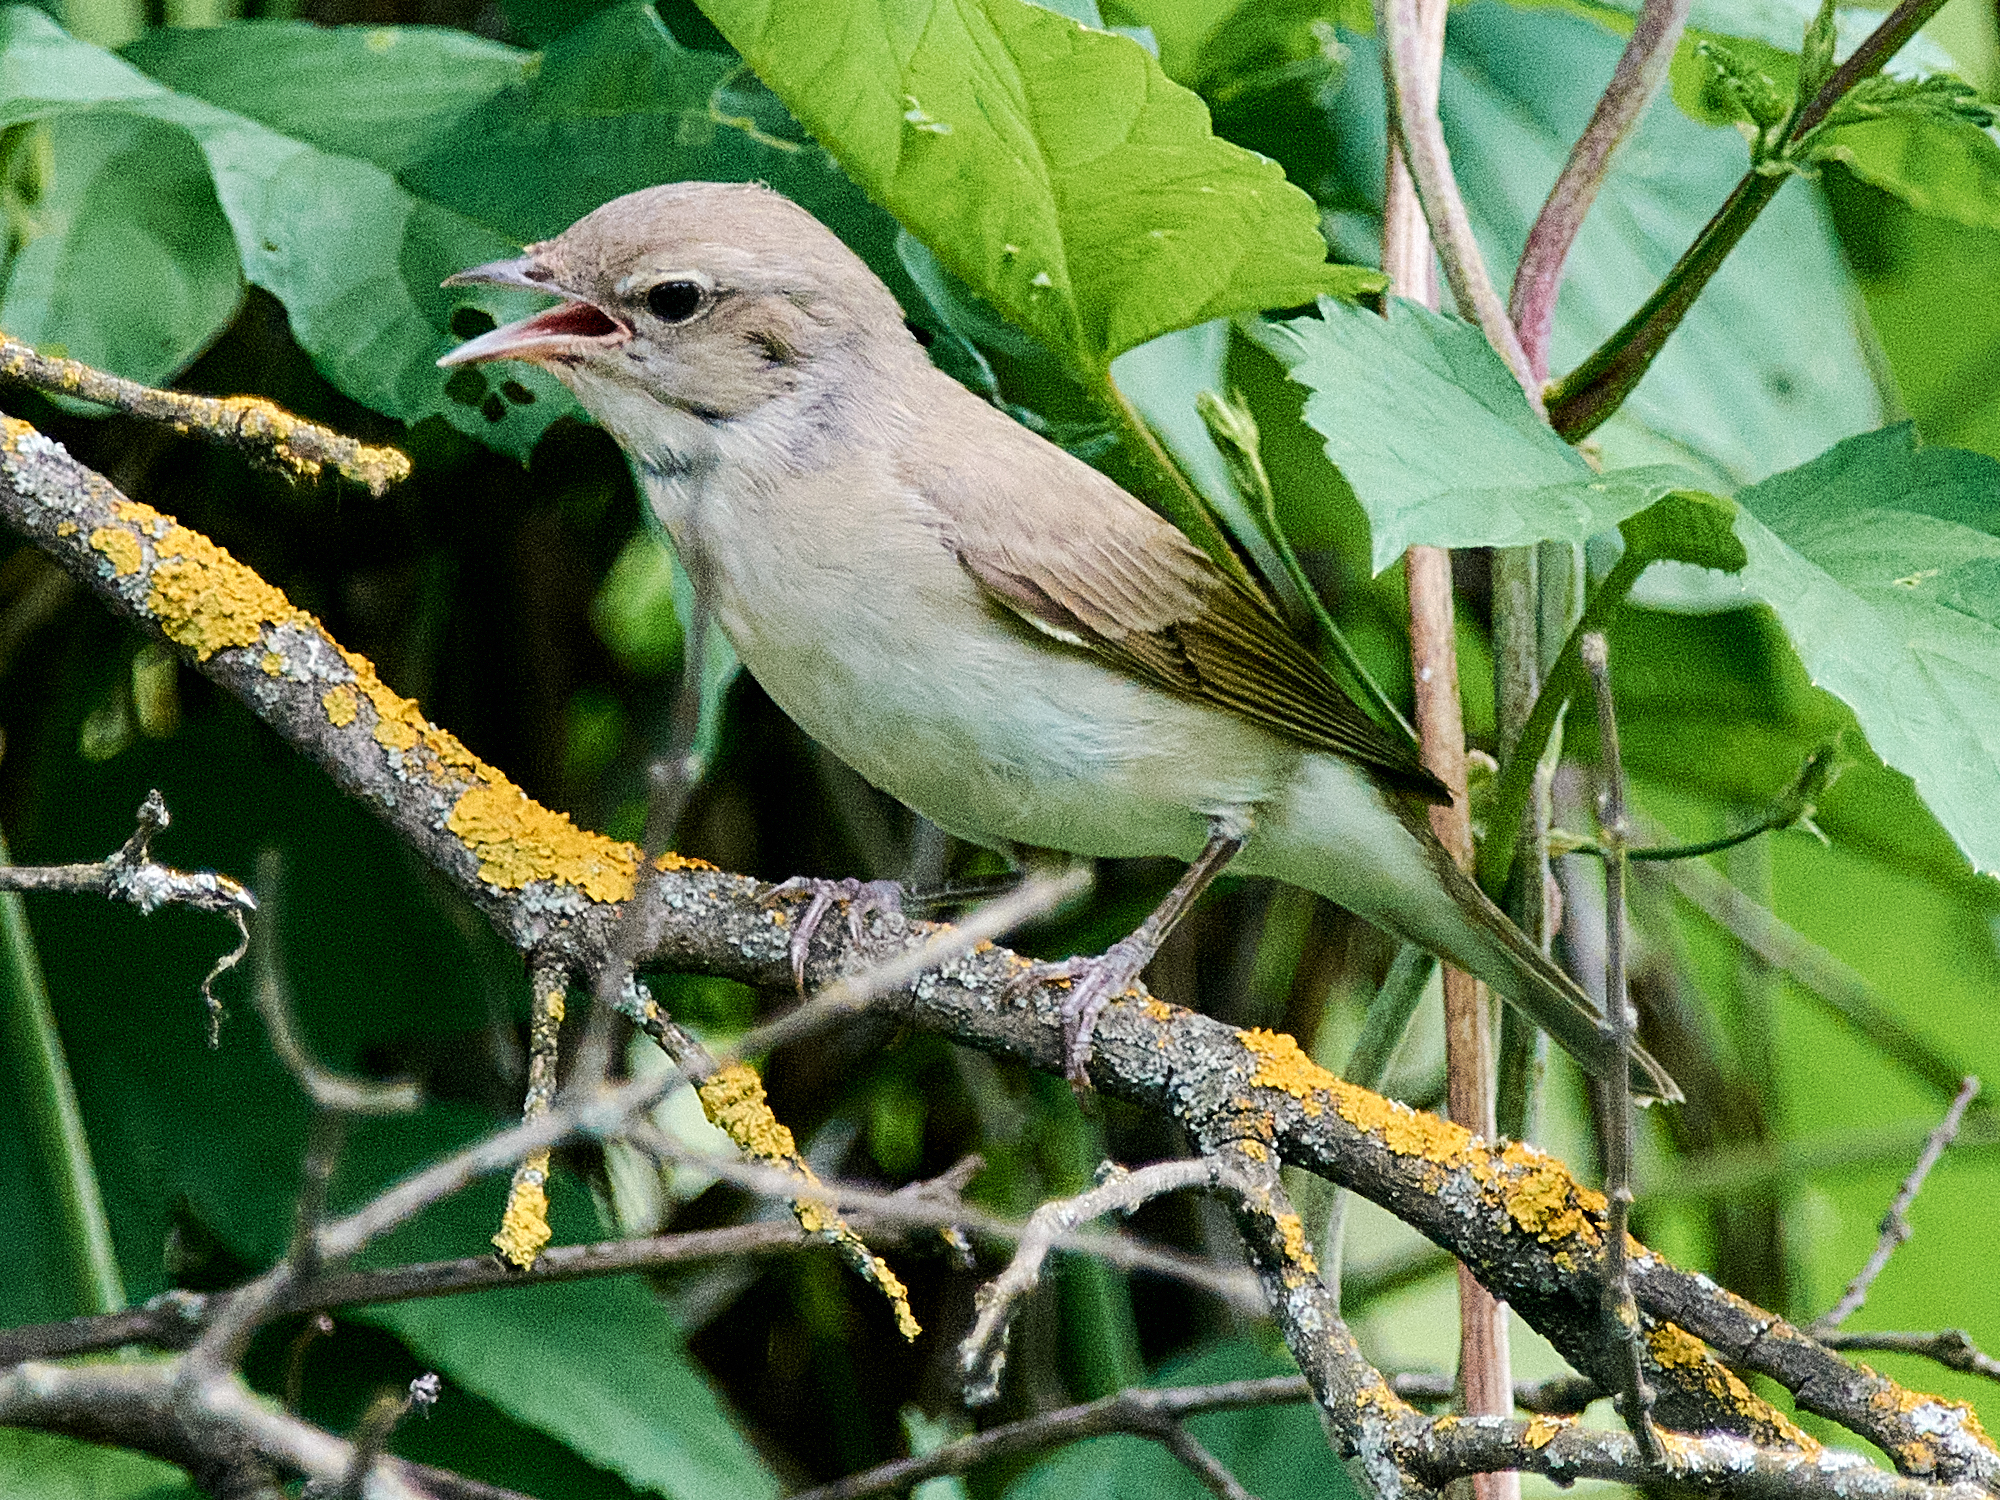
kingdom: Animalia
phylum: Chordata
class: Aves
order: Passeriformes
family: Sylviidae
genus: Sylvia
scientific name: Sylvia borin
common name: Garden warbler
